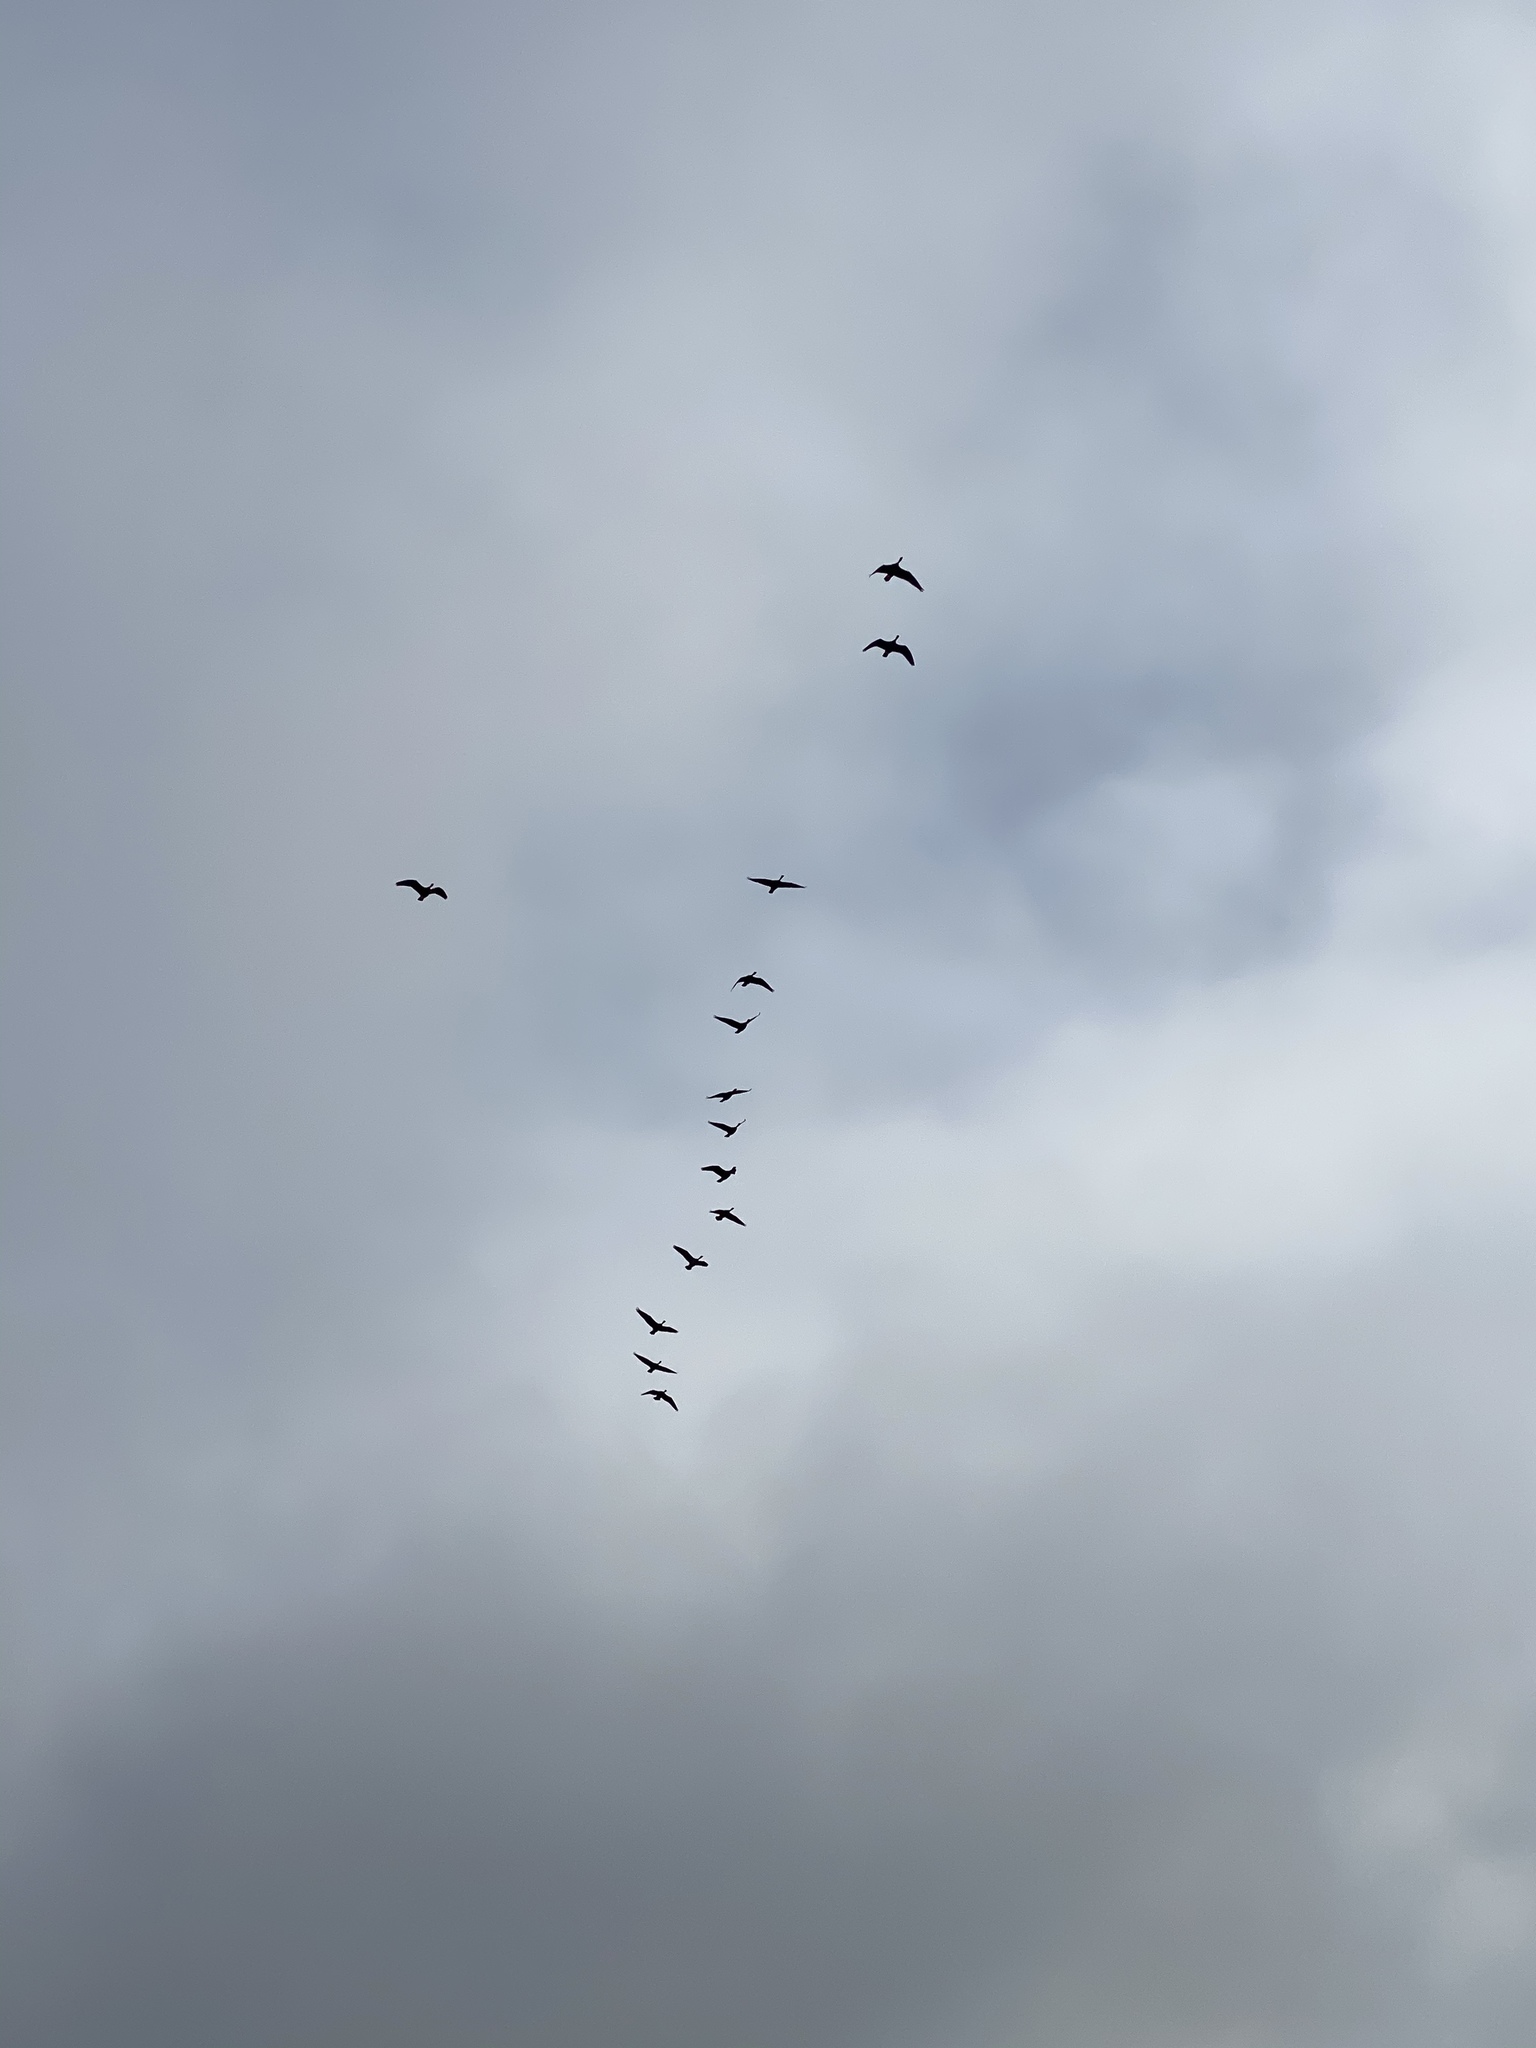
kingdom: Animalia
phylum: Chordata
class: Aves
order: Anseriformes
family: Anatidae
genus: Branta
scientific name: Branta canadensis
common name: Canada goose
